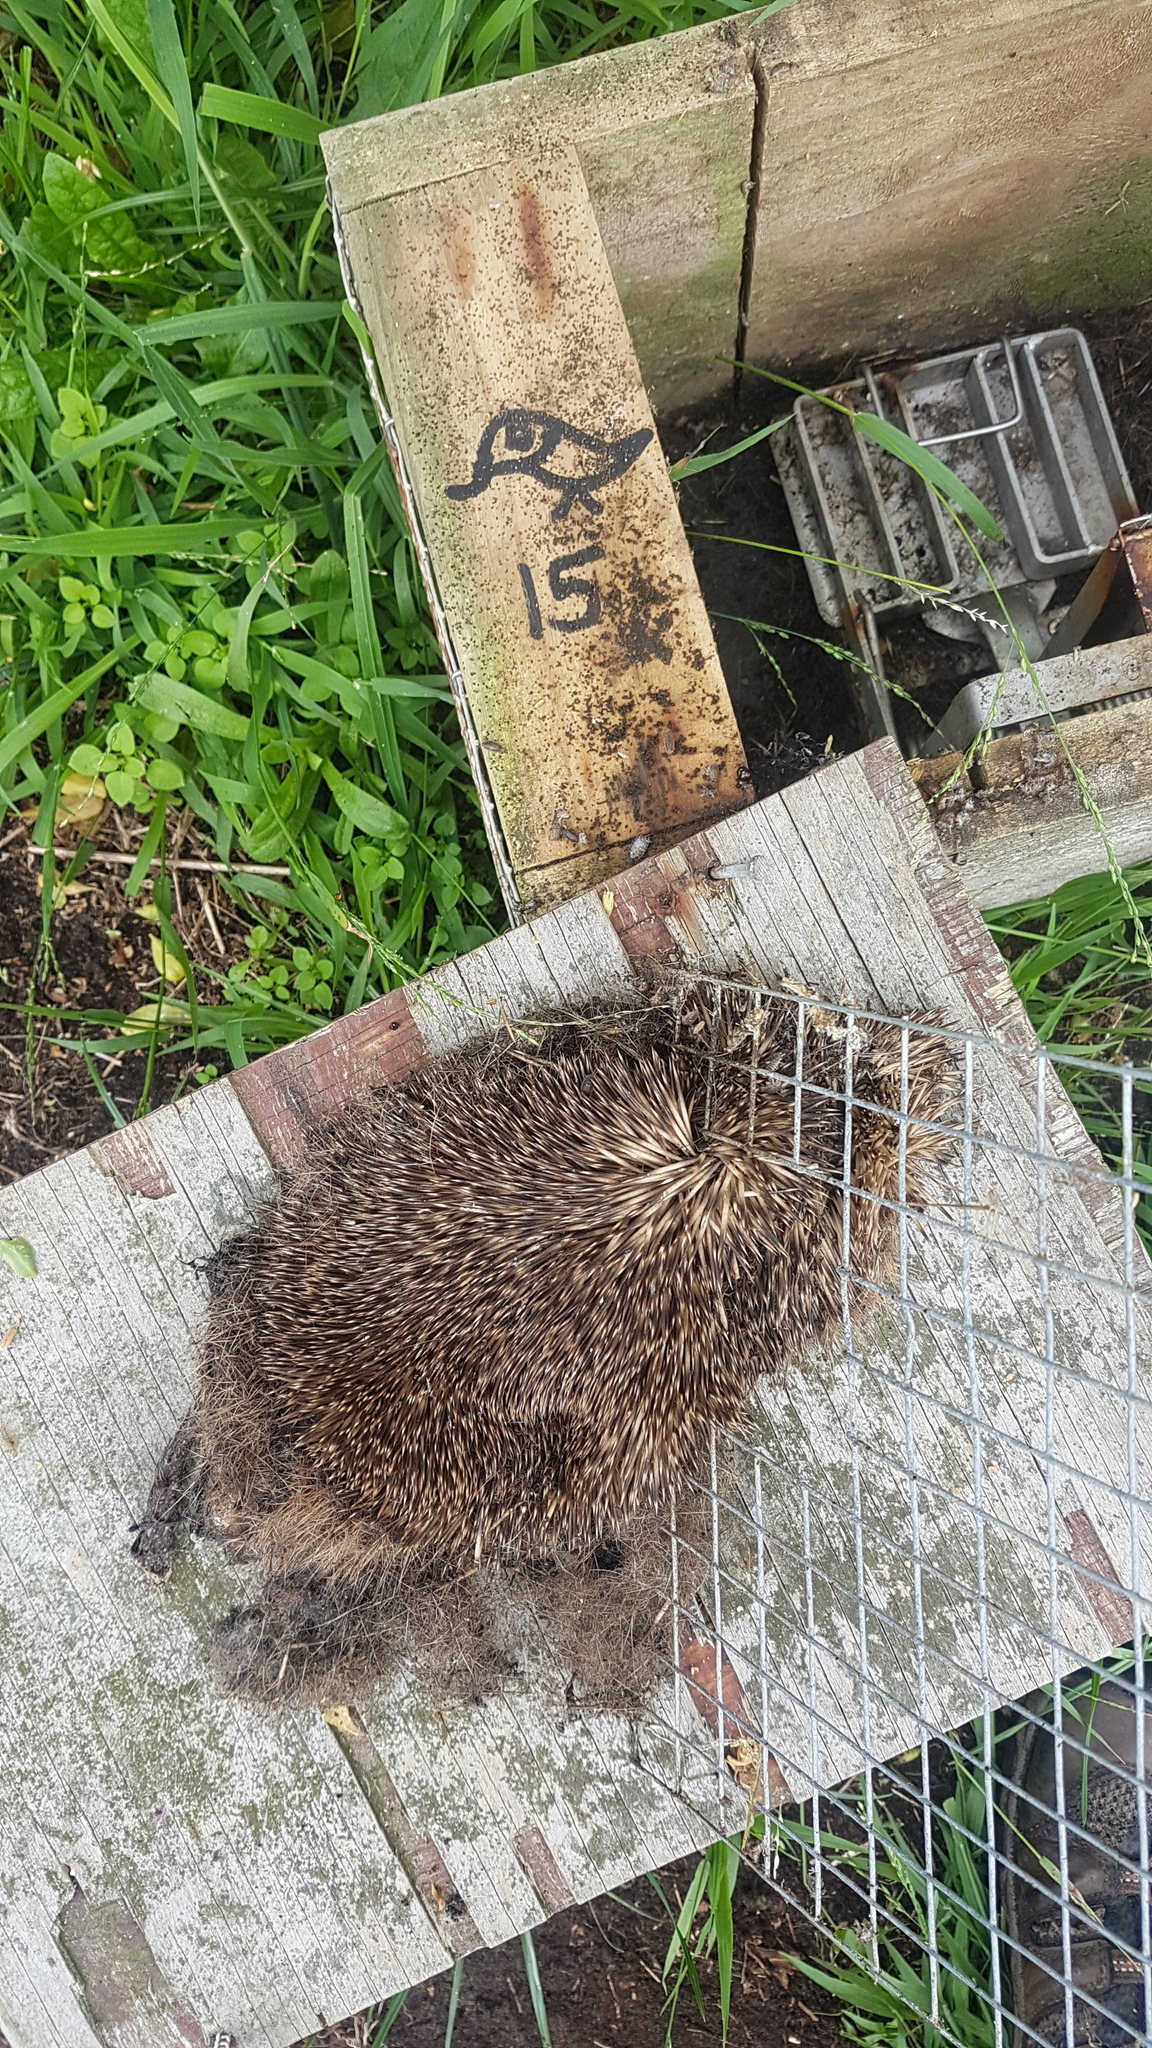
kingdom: Animalia
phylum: Chordata
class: Mammalia
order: Erinaceomorpha
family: Erinaceidae
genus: Erinaceus
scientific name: Erinaceus europaeus
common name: West european hedgehog
